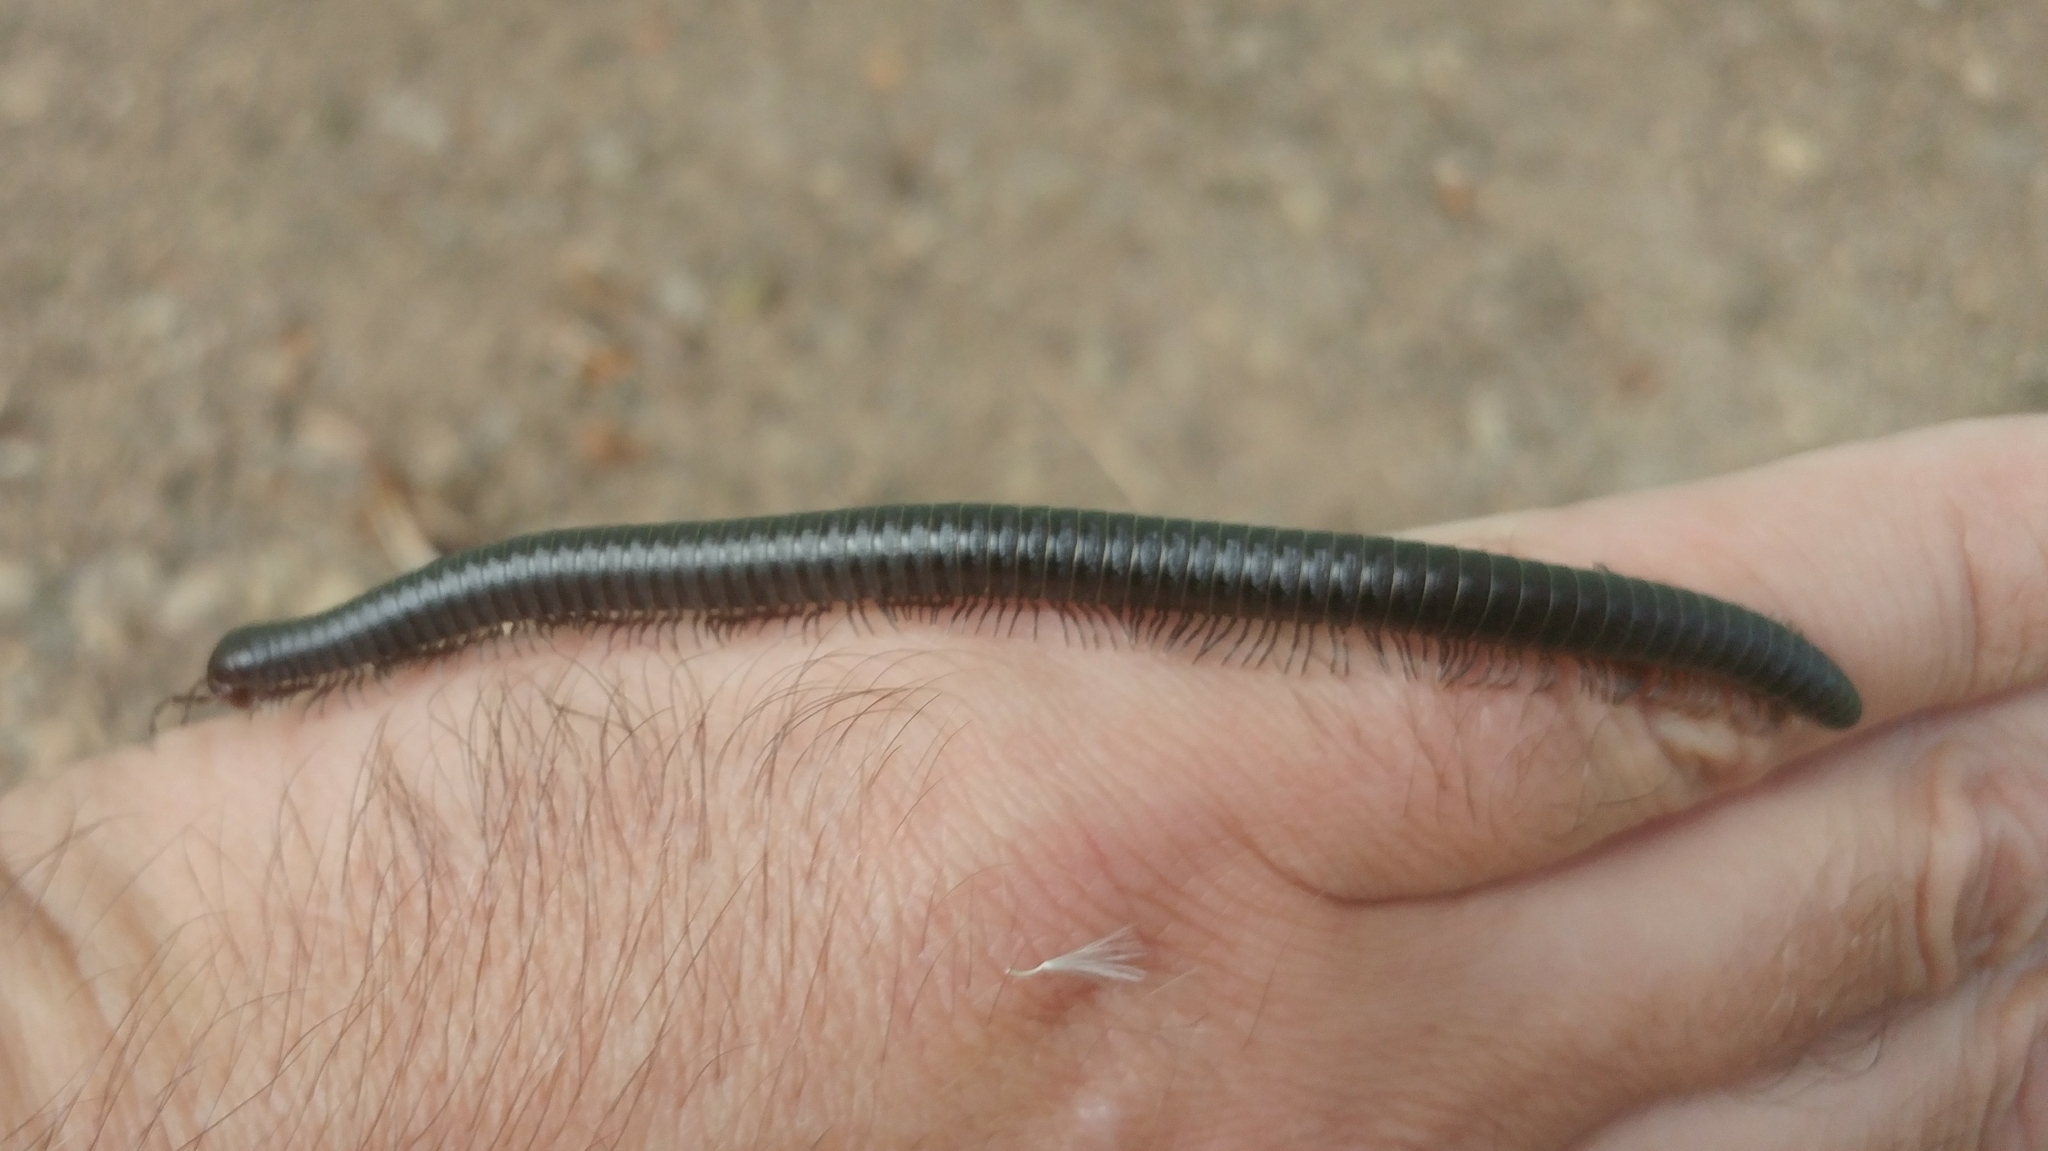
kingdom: Animalia
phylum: Arthropoda
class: Diplopoda
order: Julida
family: Paeromopodidae
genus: Californiulus
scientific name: Californiulus euphanus
